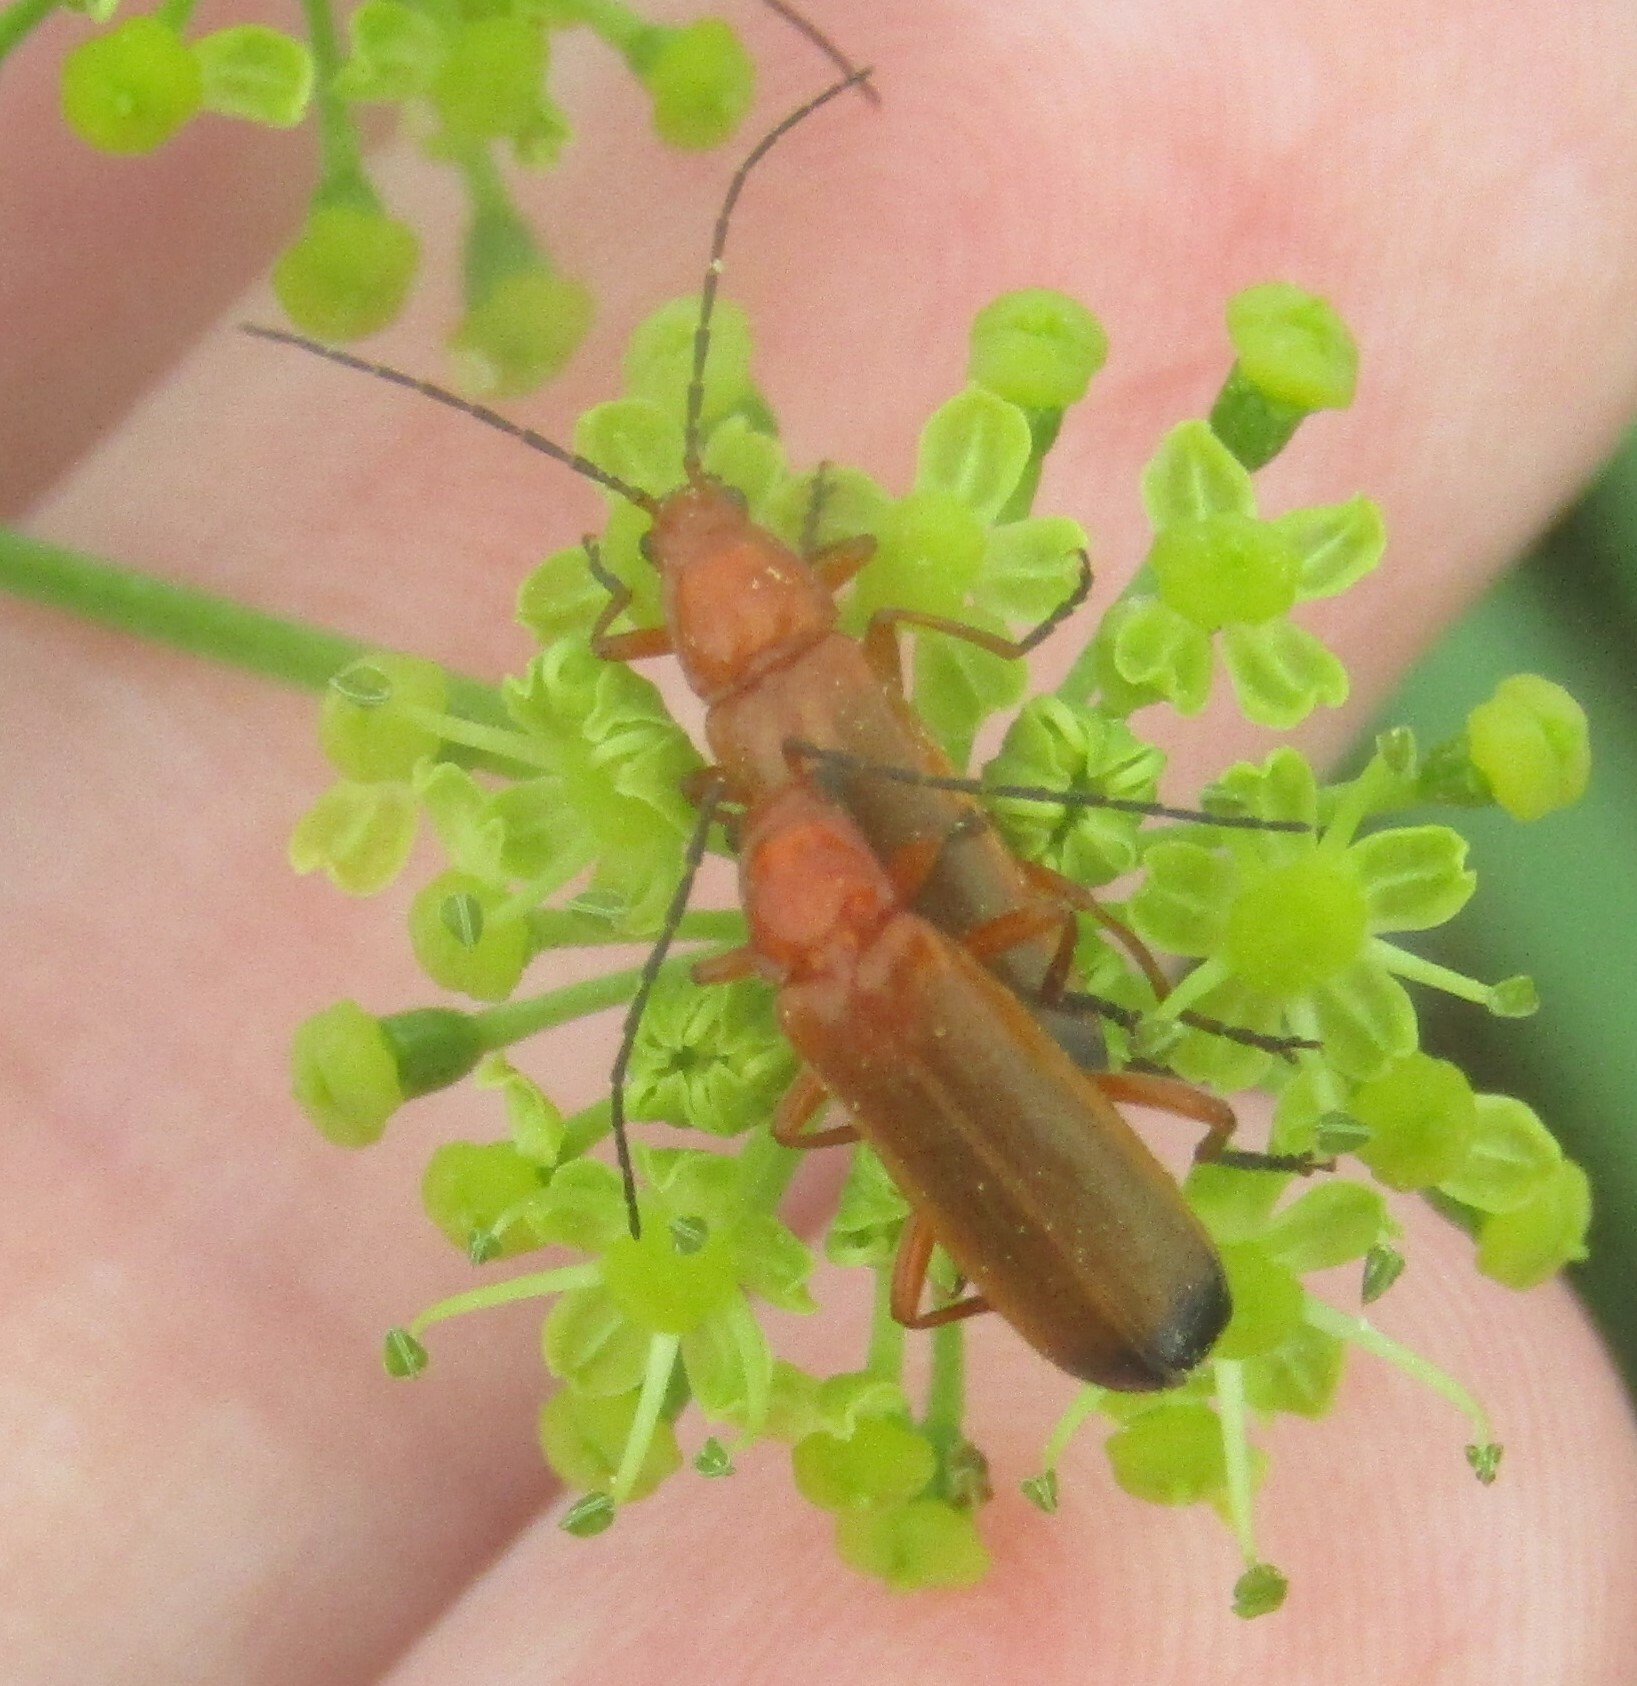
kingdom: Animalia
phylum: Arthropoda
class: Insecta
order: Coleoptera
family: Cantharidae
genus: Rhagonycha
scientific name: Rhagonycha fulva
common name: Common red soldier beetle
